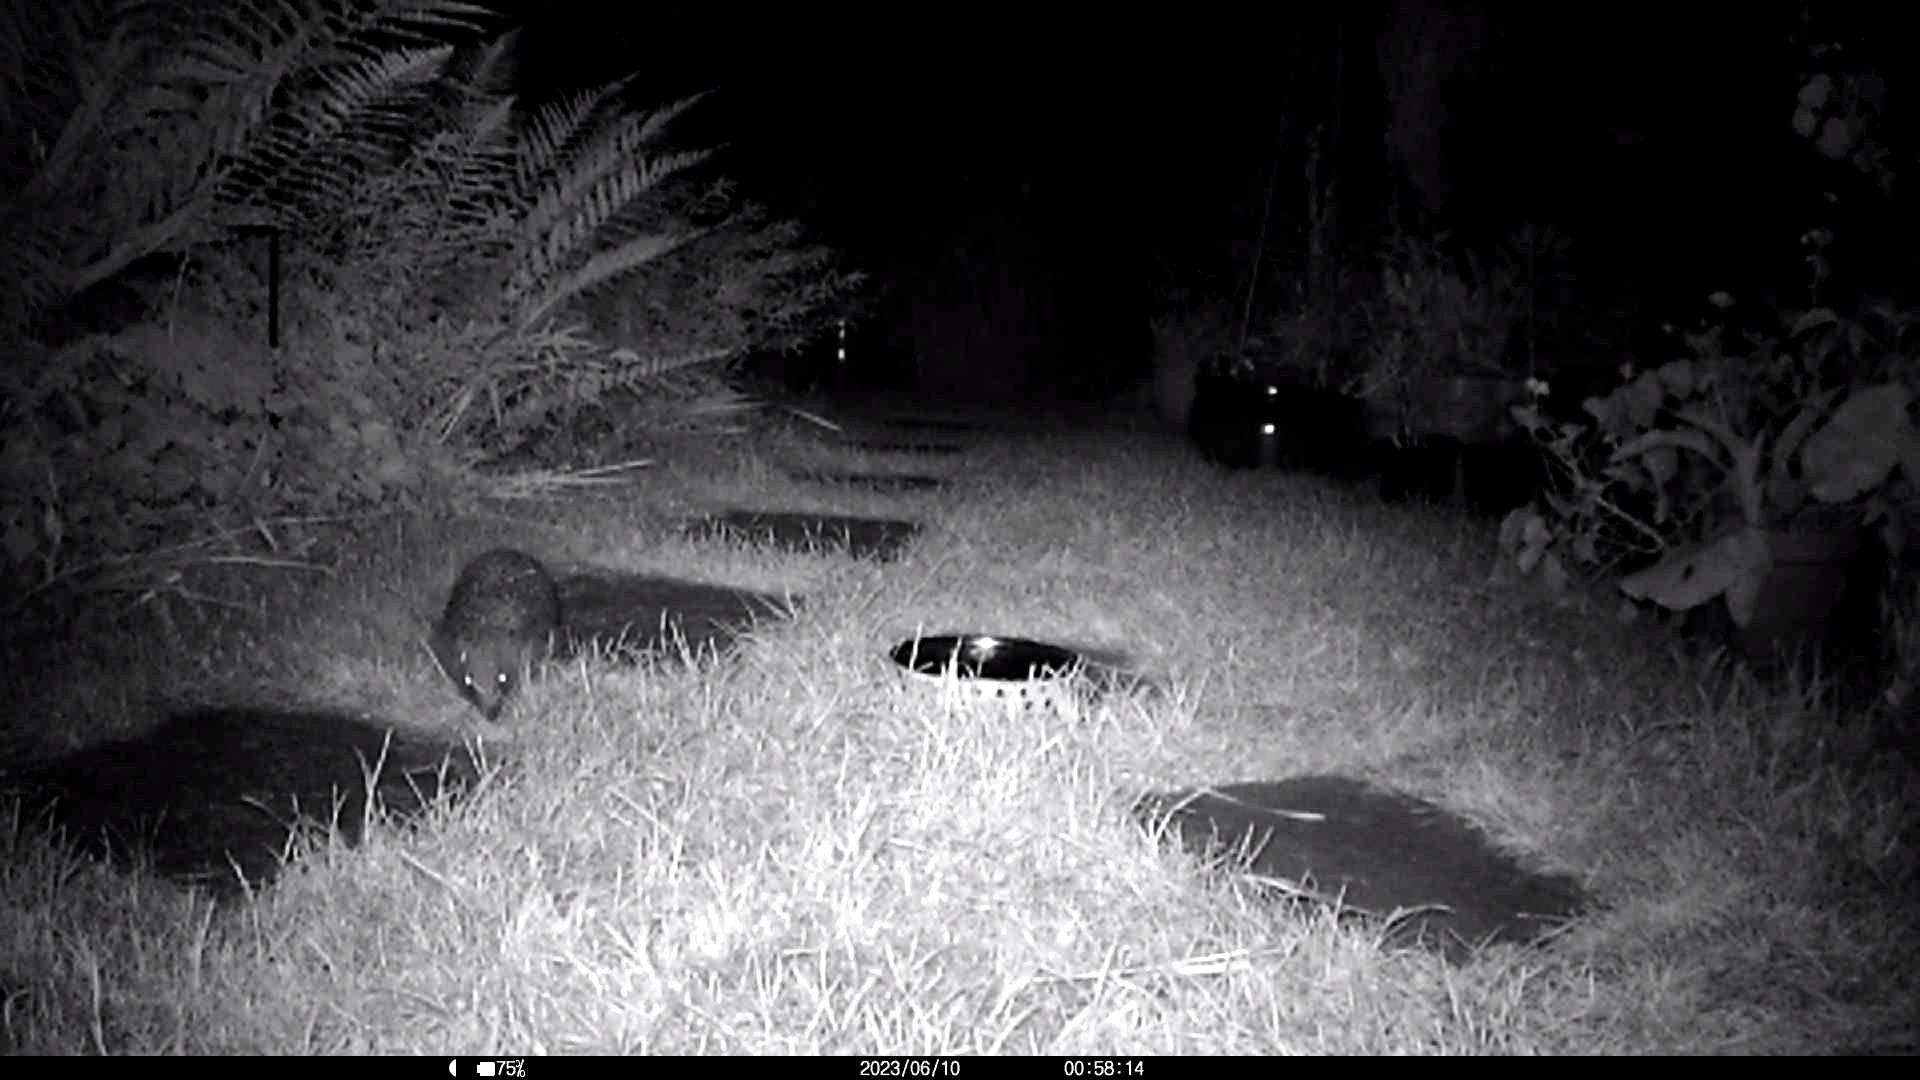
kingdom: Animalia
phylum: Chordata
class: Mammalia
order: Erinaceomorpha
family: Erinaceidae
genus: Erinaceus
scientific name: Erinaceus europaeus
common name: West european hedgehog
